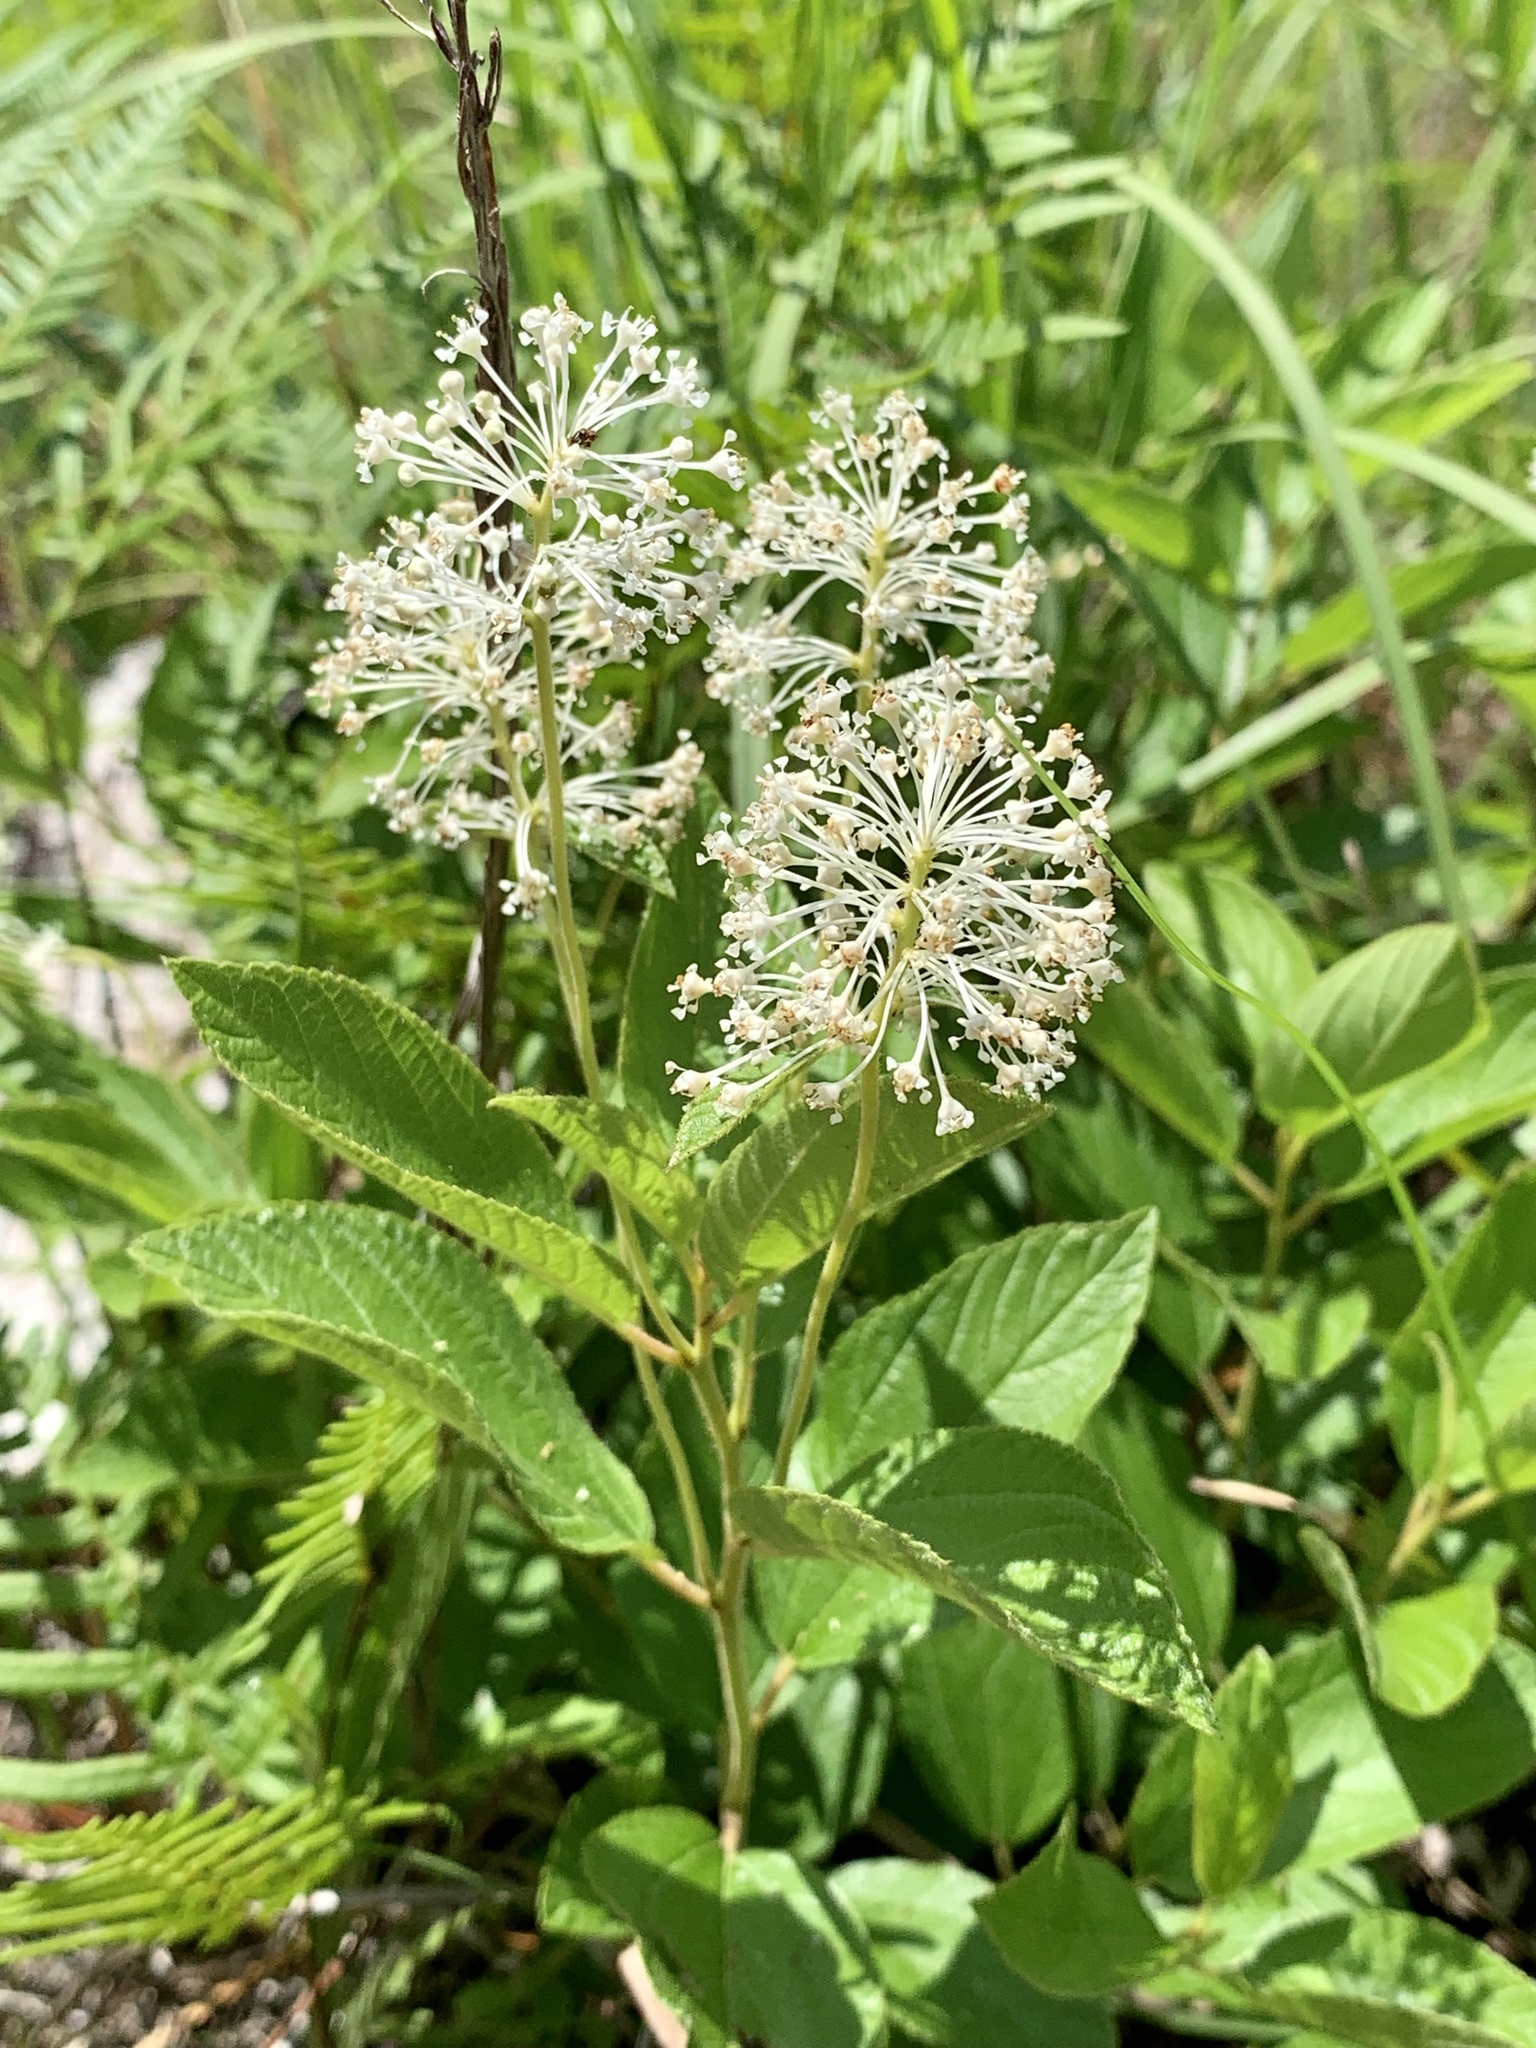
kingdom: Plantae
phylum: Tracheophyta
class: Magnoliopsida
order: Rosales
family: Rhamnaceae
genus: Ceanothus
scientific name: Ceanothus americanus
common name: Redroot
